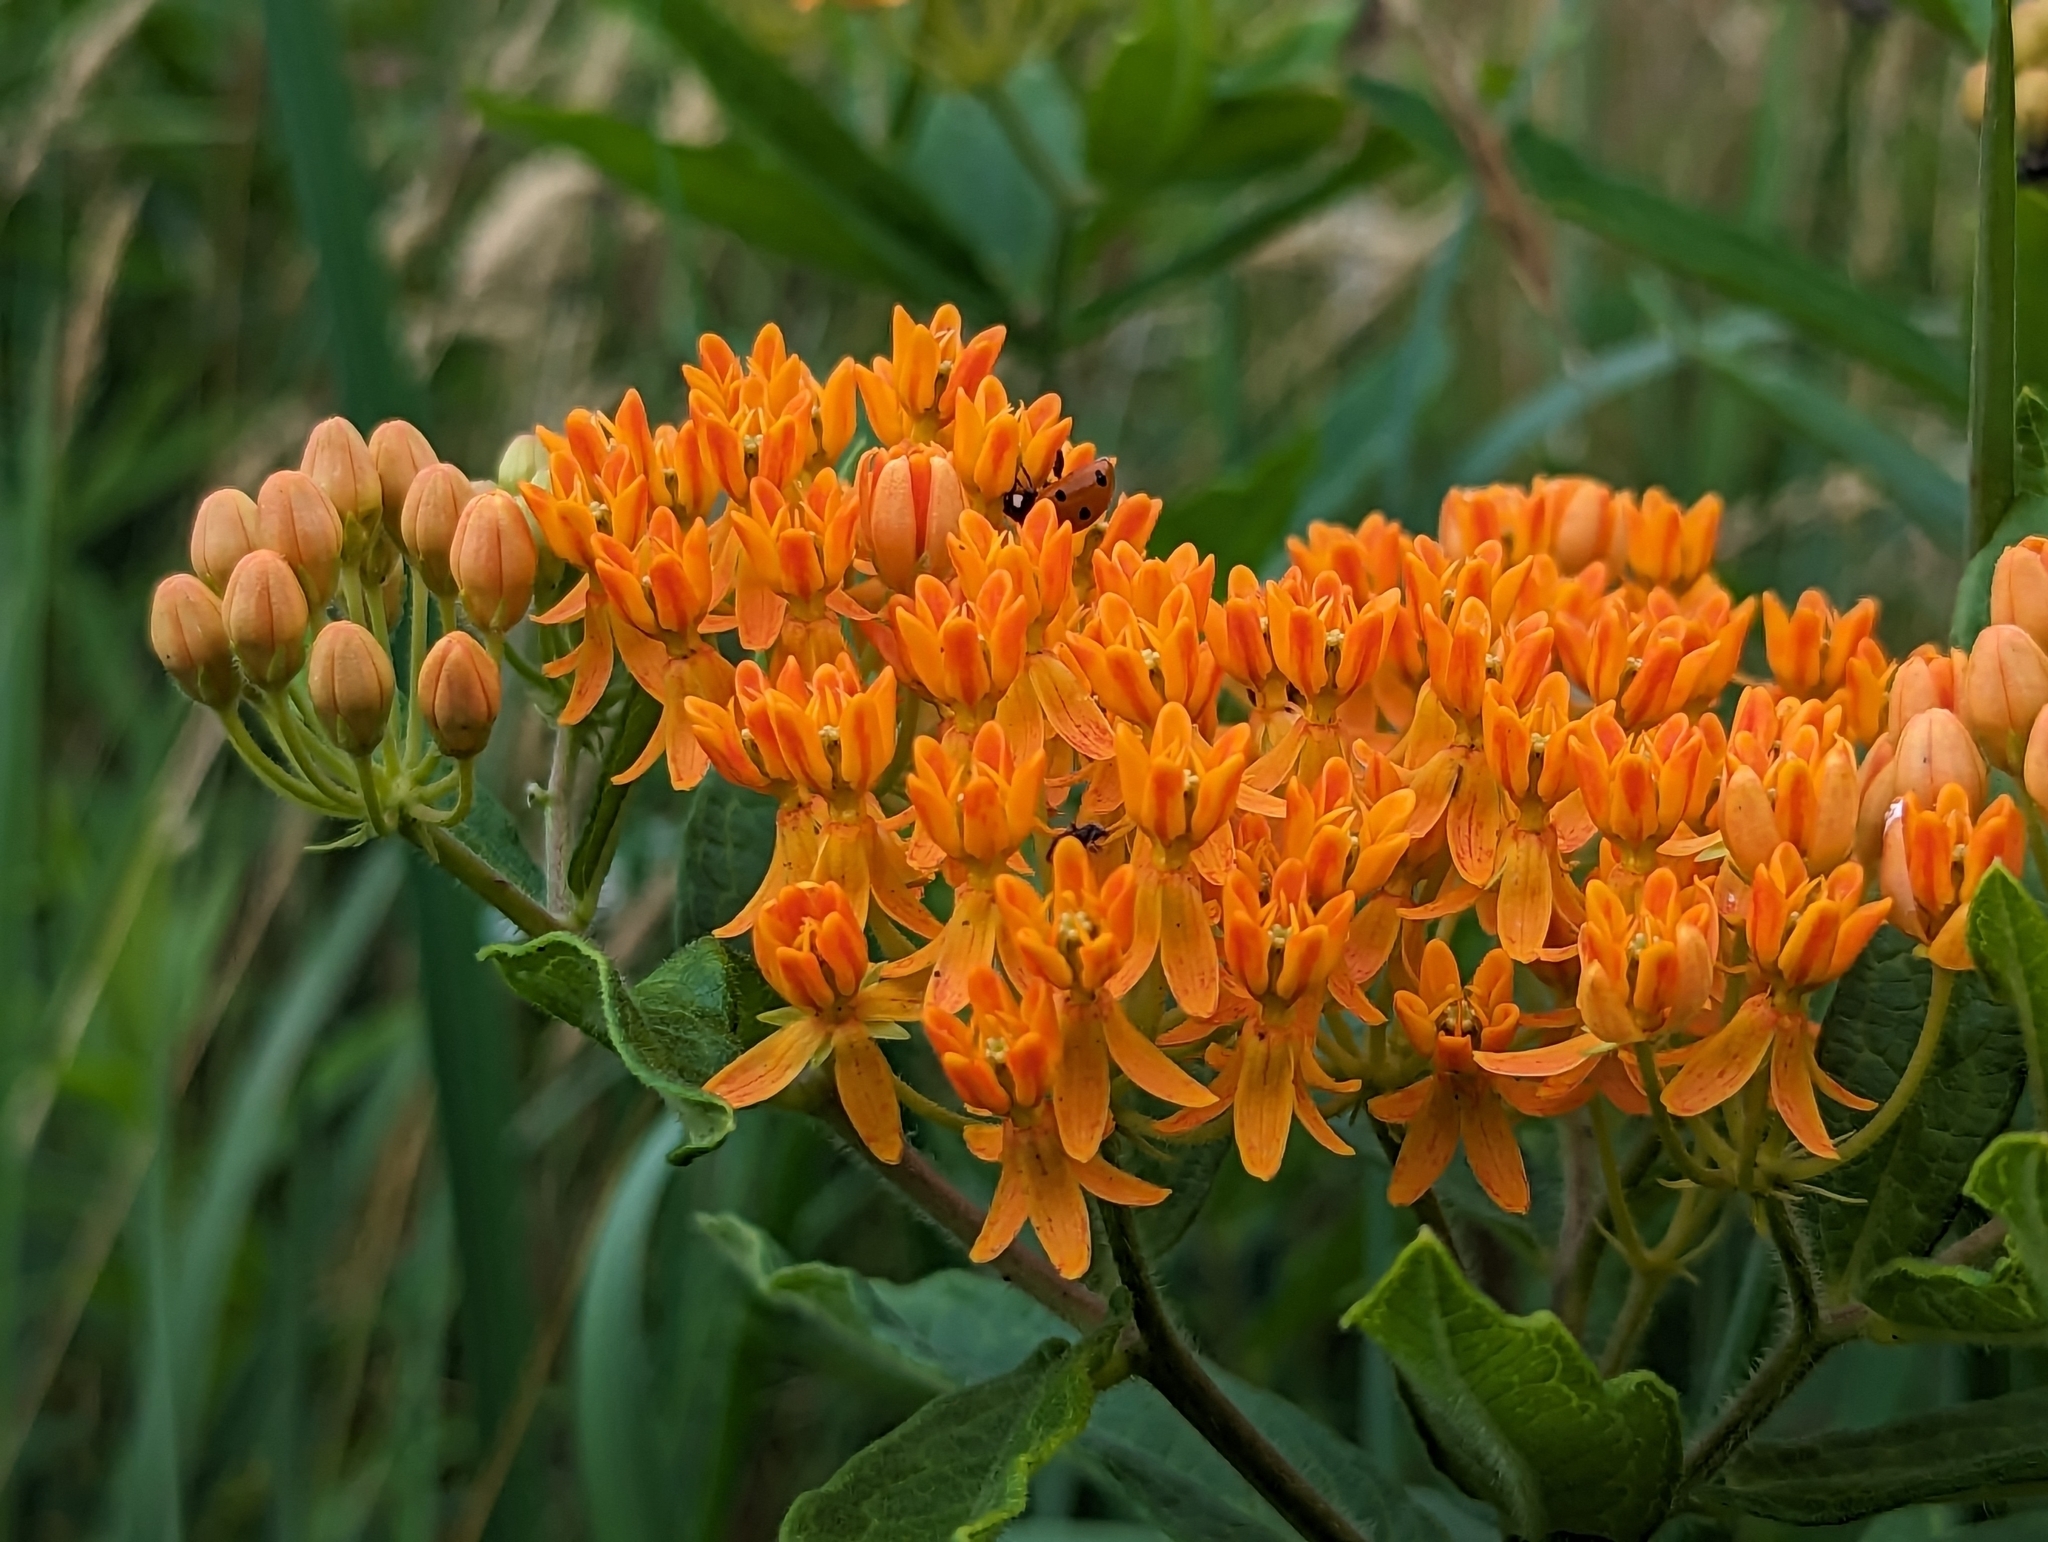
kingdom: Plantae
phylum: Tracheophyta
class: Magnoliopsida
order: Gentianales
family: Apocynaceae
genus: Asclepias
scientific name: Asclepias tuberosa
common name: Butterfly milkweed
